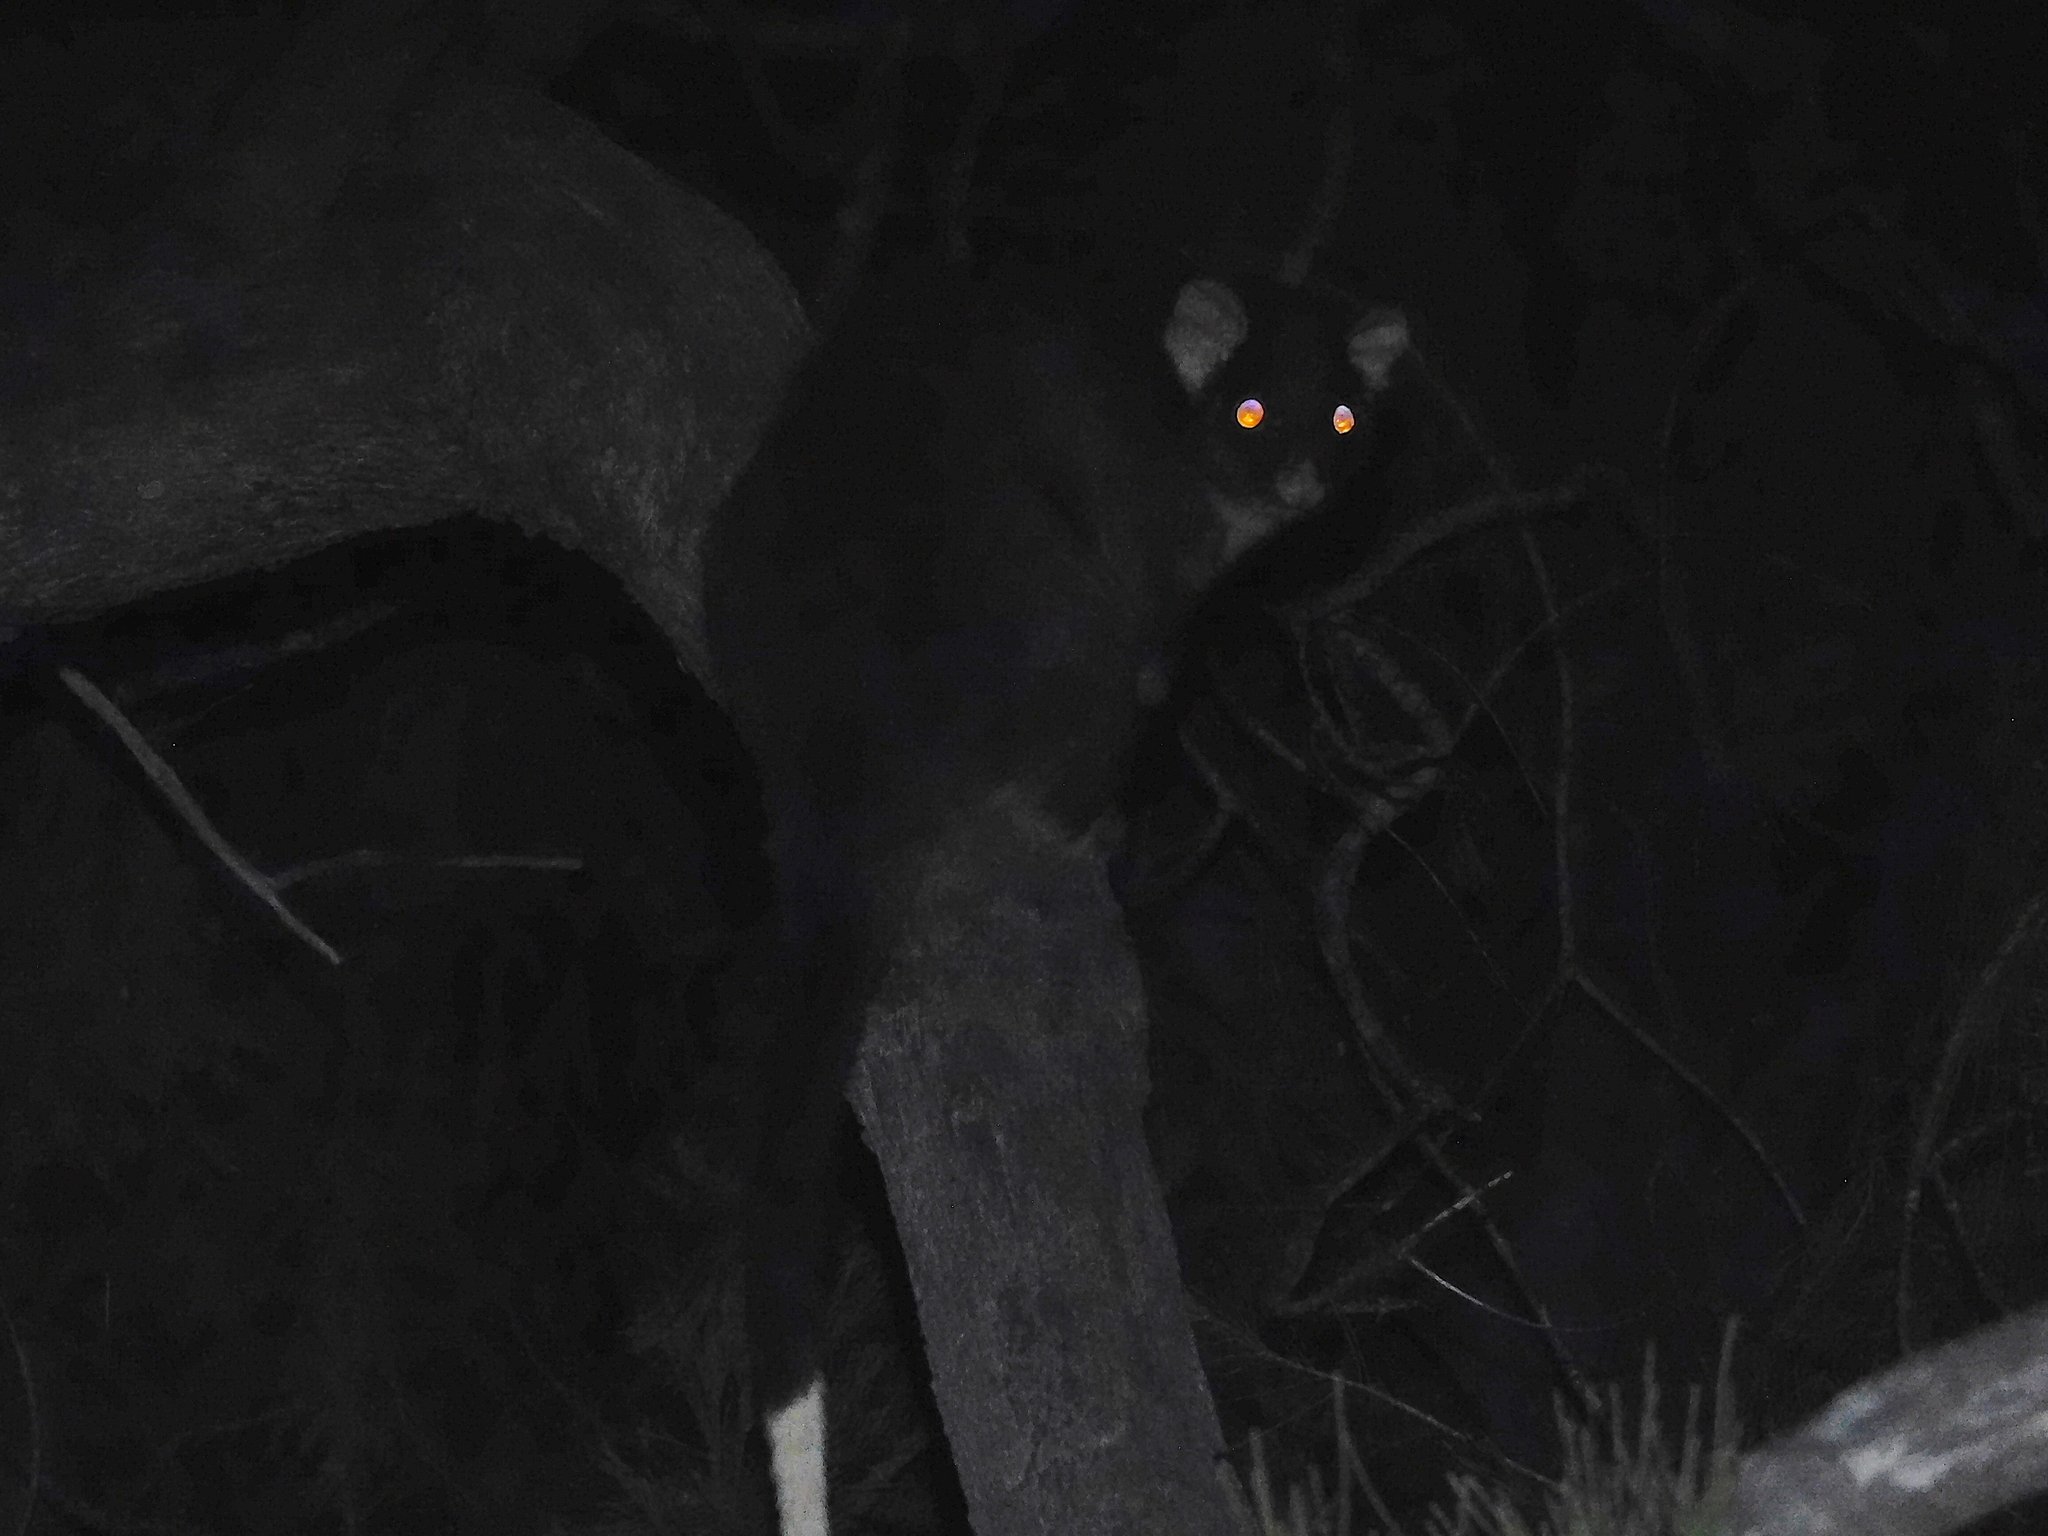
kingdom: Animalia
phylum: Chordata
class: Mammalia
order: Diprotodontia
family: Pseudocheiridae
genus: Pseudocheirus
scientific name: Pseudocheirus peregrinus
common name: Common ringtail possum
